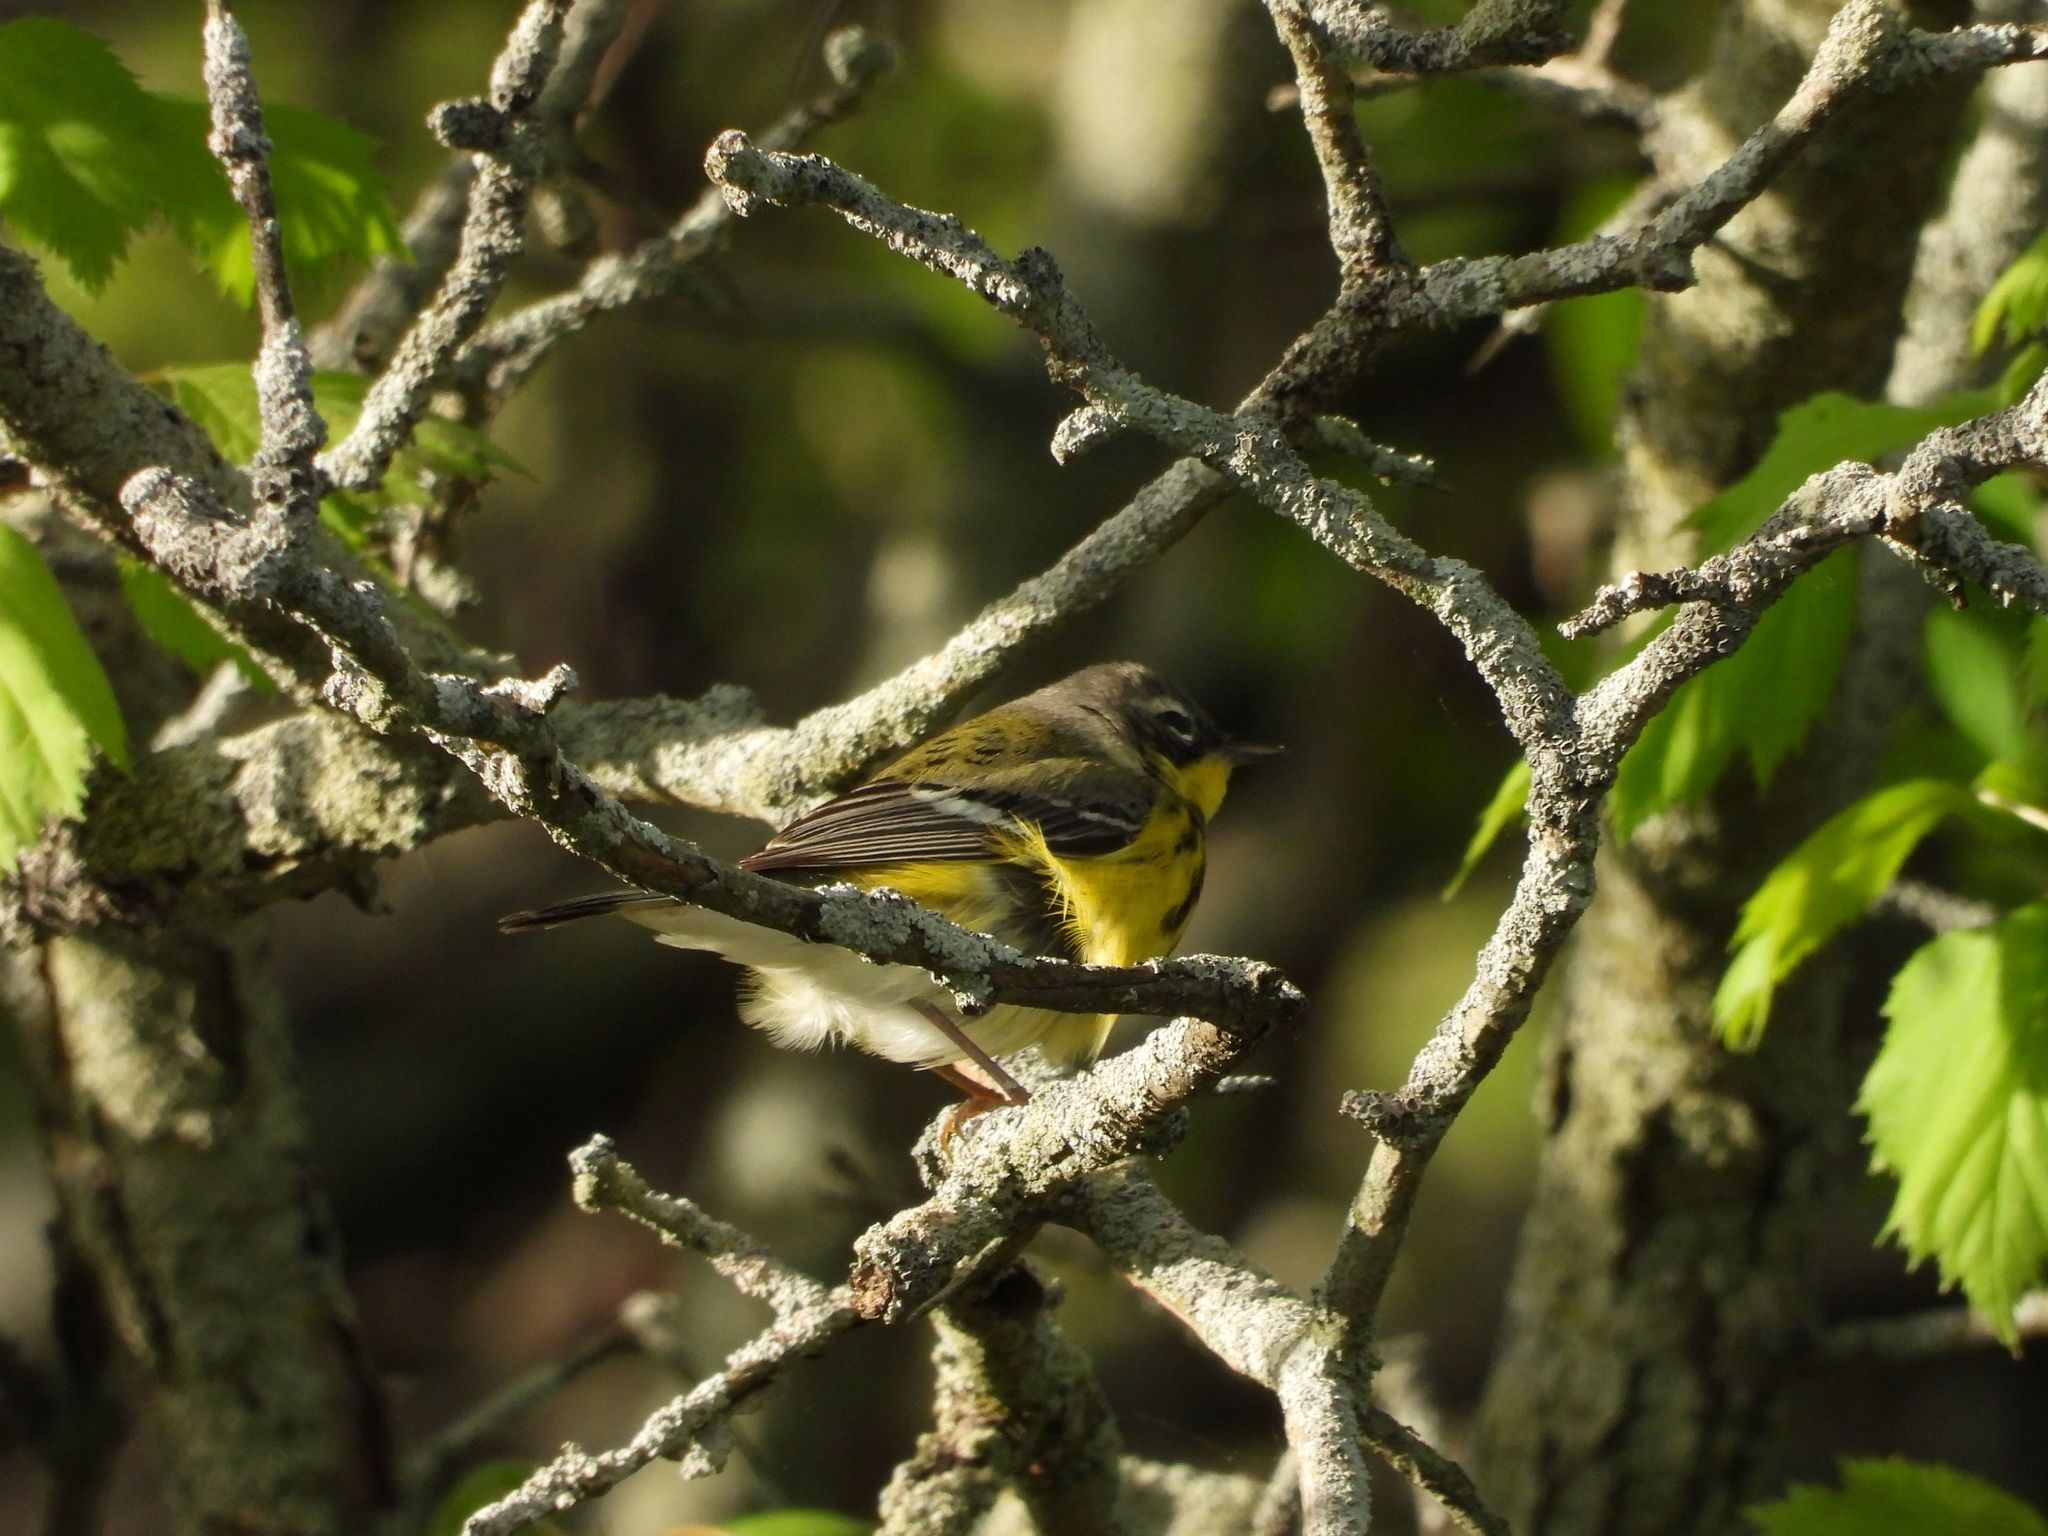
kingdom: Animalia
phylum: Chordata
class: Aves
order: Passeriformes
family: Parulidae
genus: Setophaga
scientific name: Setophaga magnolia
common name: Magnolia warbler
